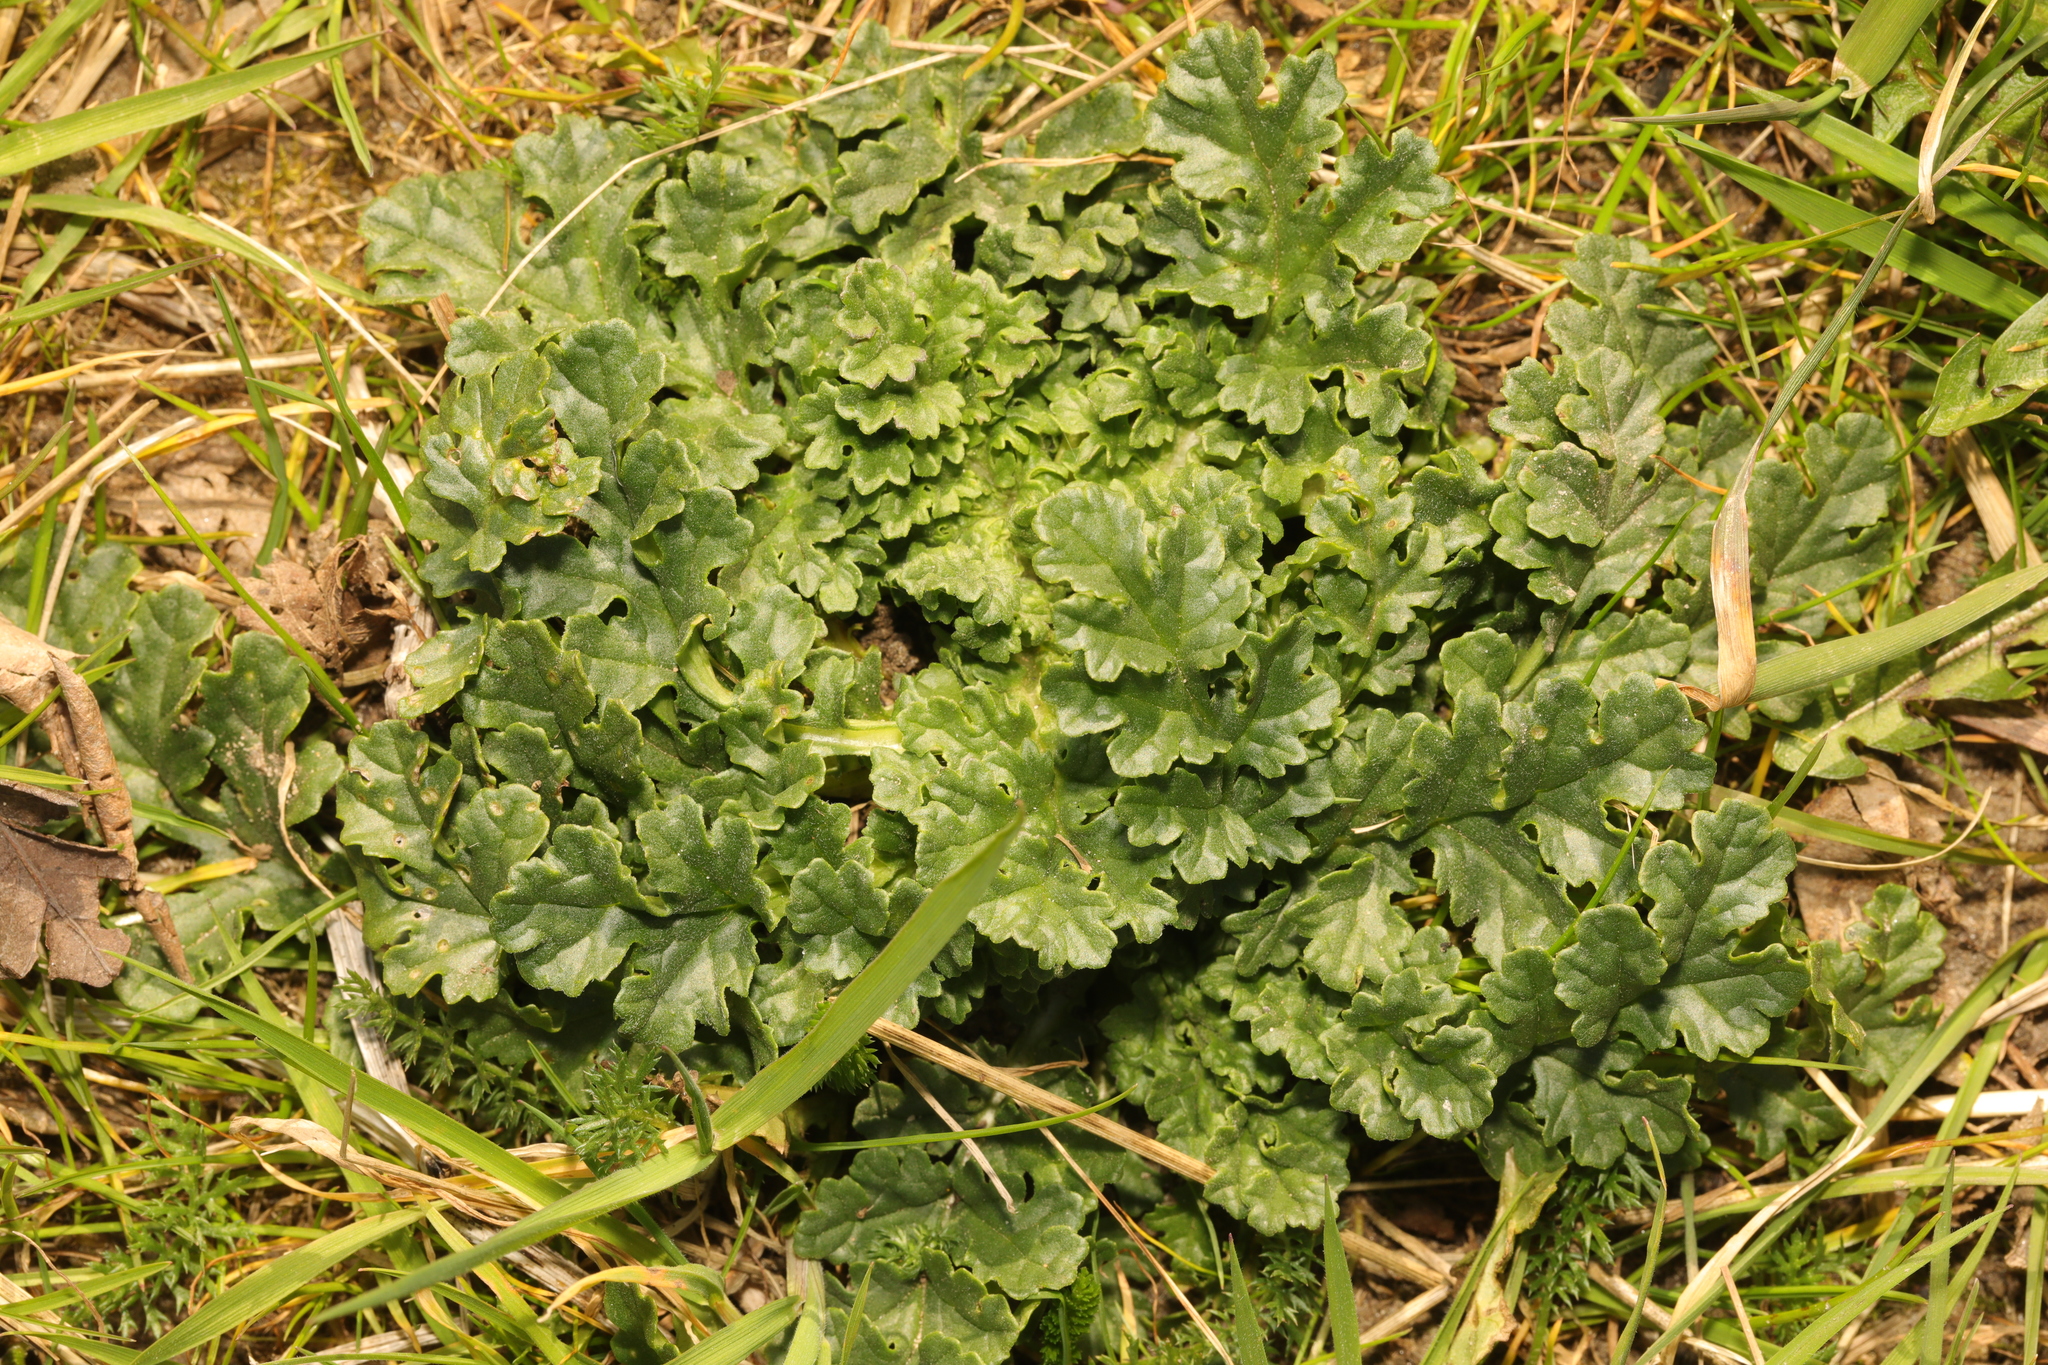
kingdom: Plantae
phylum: Tracheophyta
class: Magnoliopsida
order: Asterales
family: Asteraceae
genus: Jacobaea
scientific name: Jacobaea vulgaris
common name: Stinking willie
